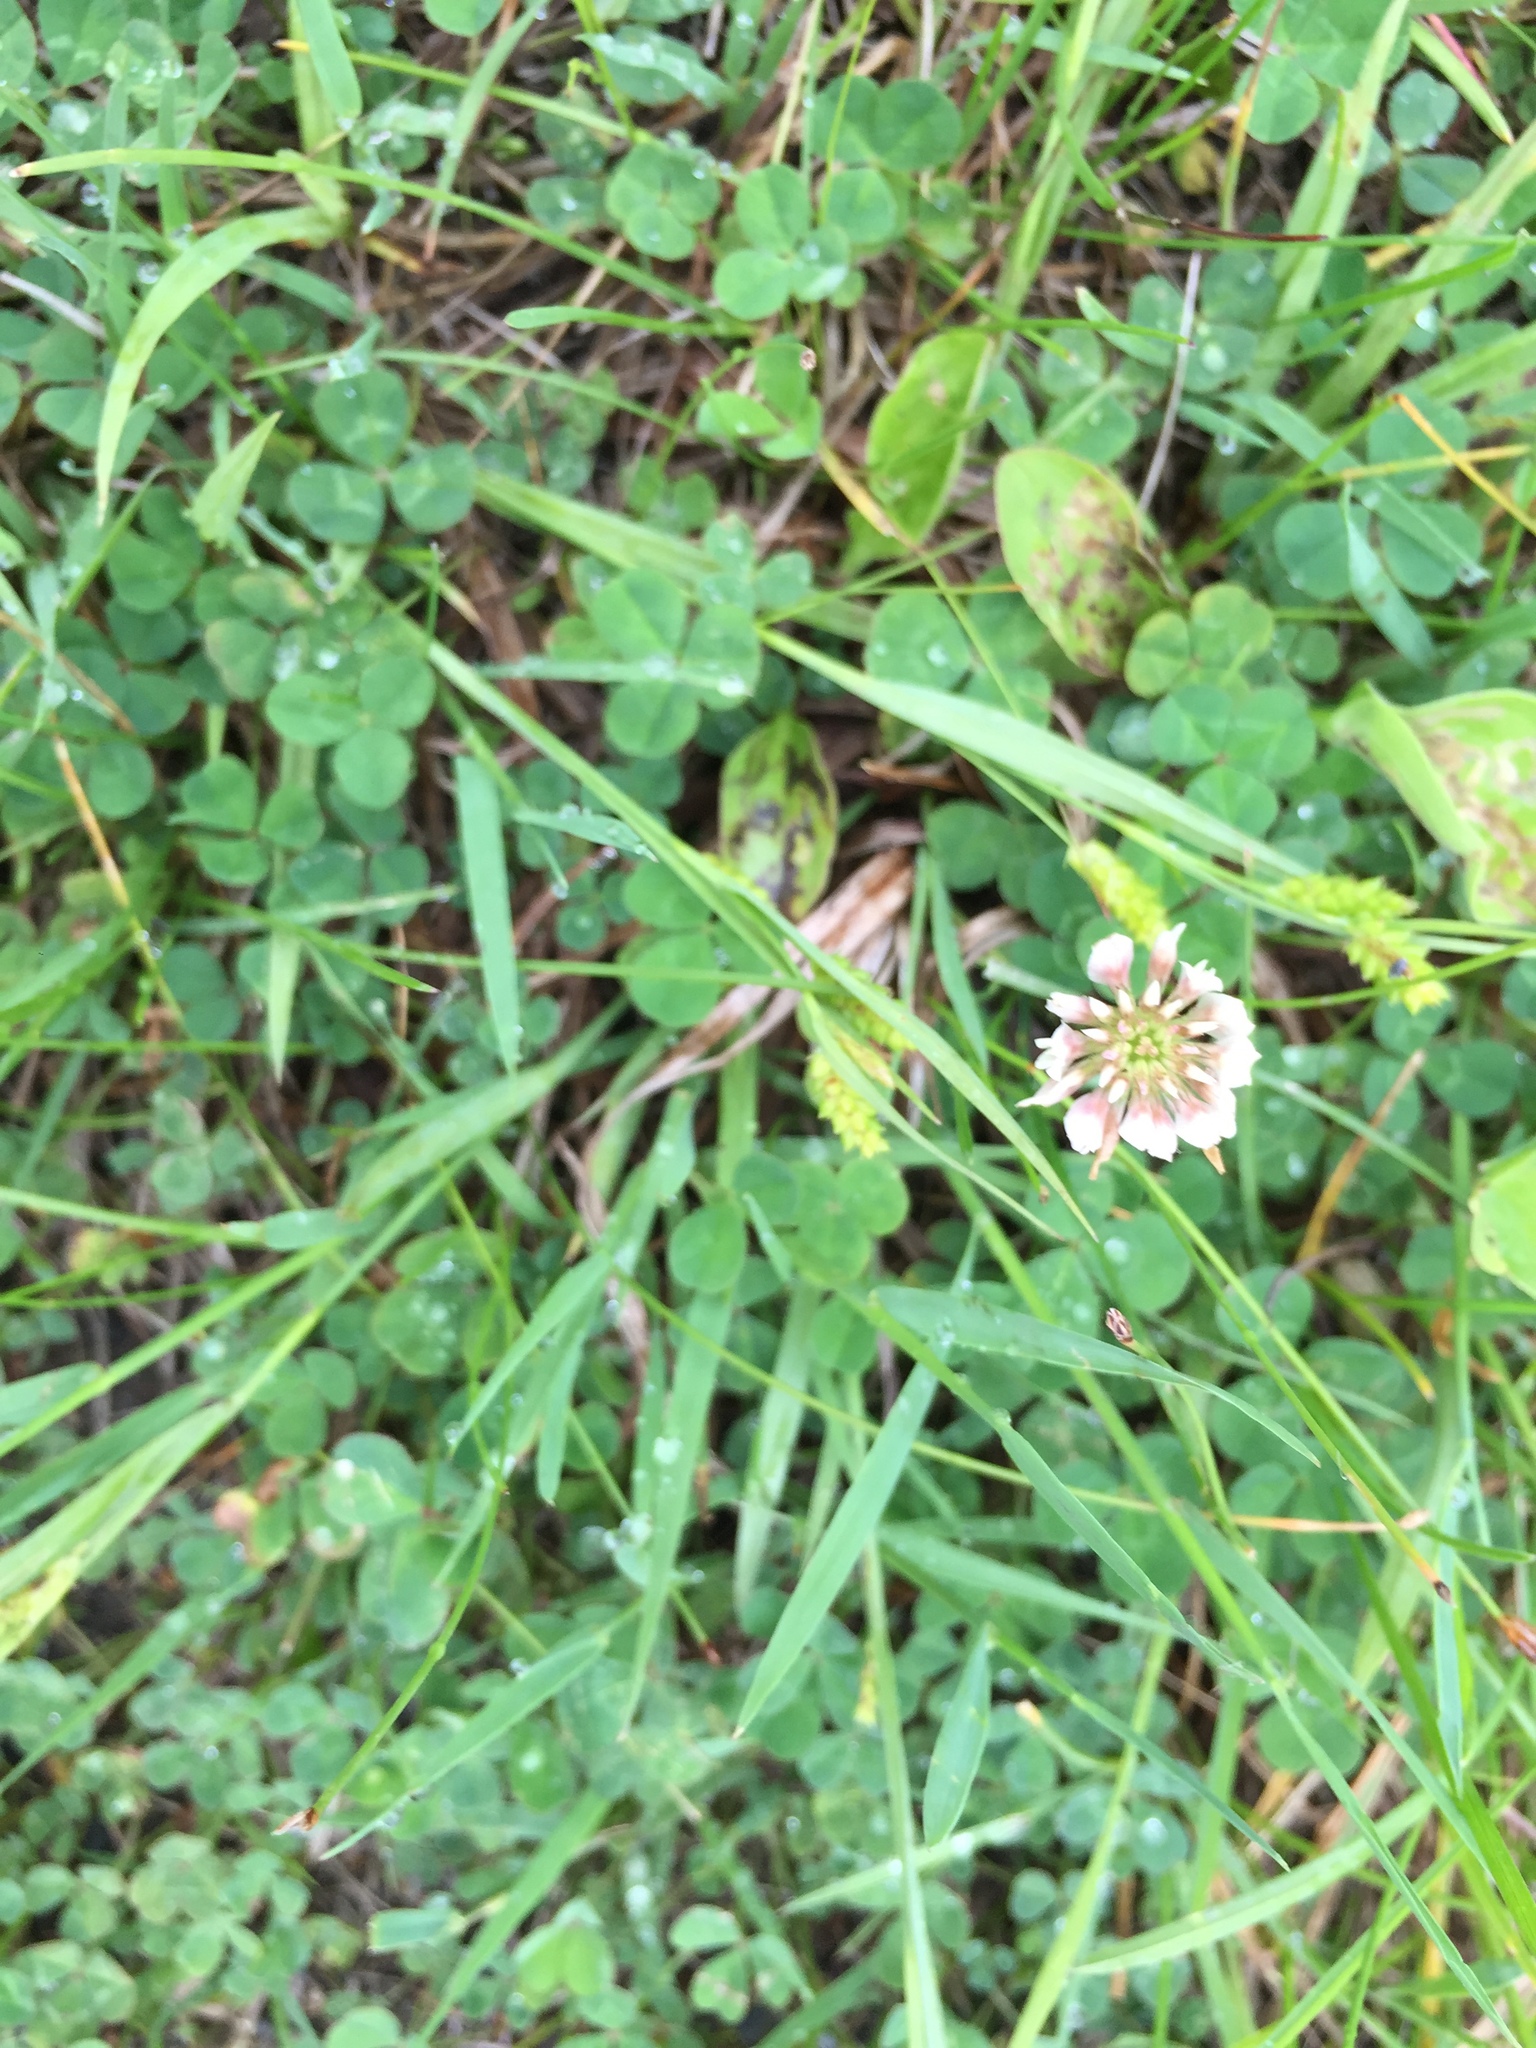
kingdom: Plantae
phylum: Tracheophyta
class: Magnoliopsida
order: Fabales
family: Fabaceae
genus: Trifolium
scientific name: Trifolium repens
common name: White clover
